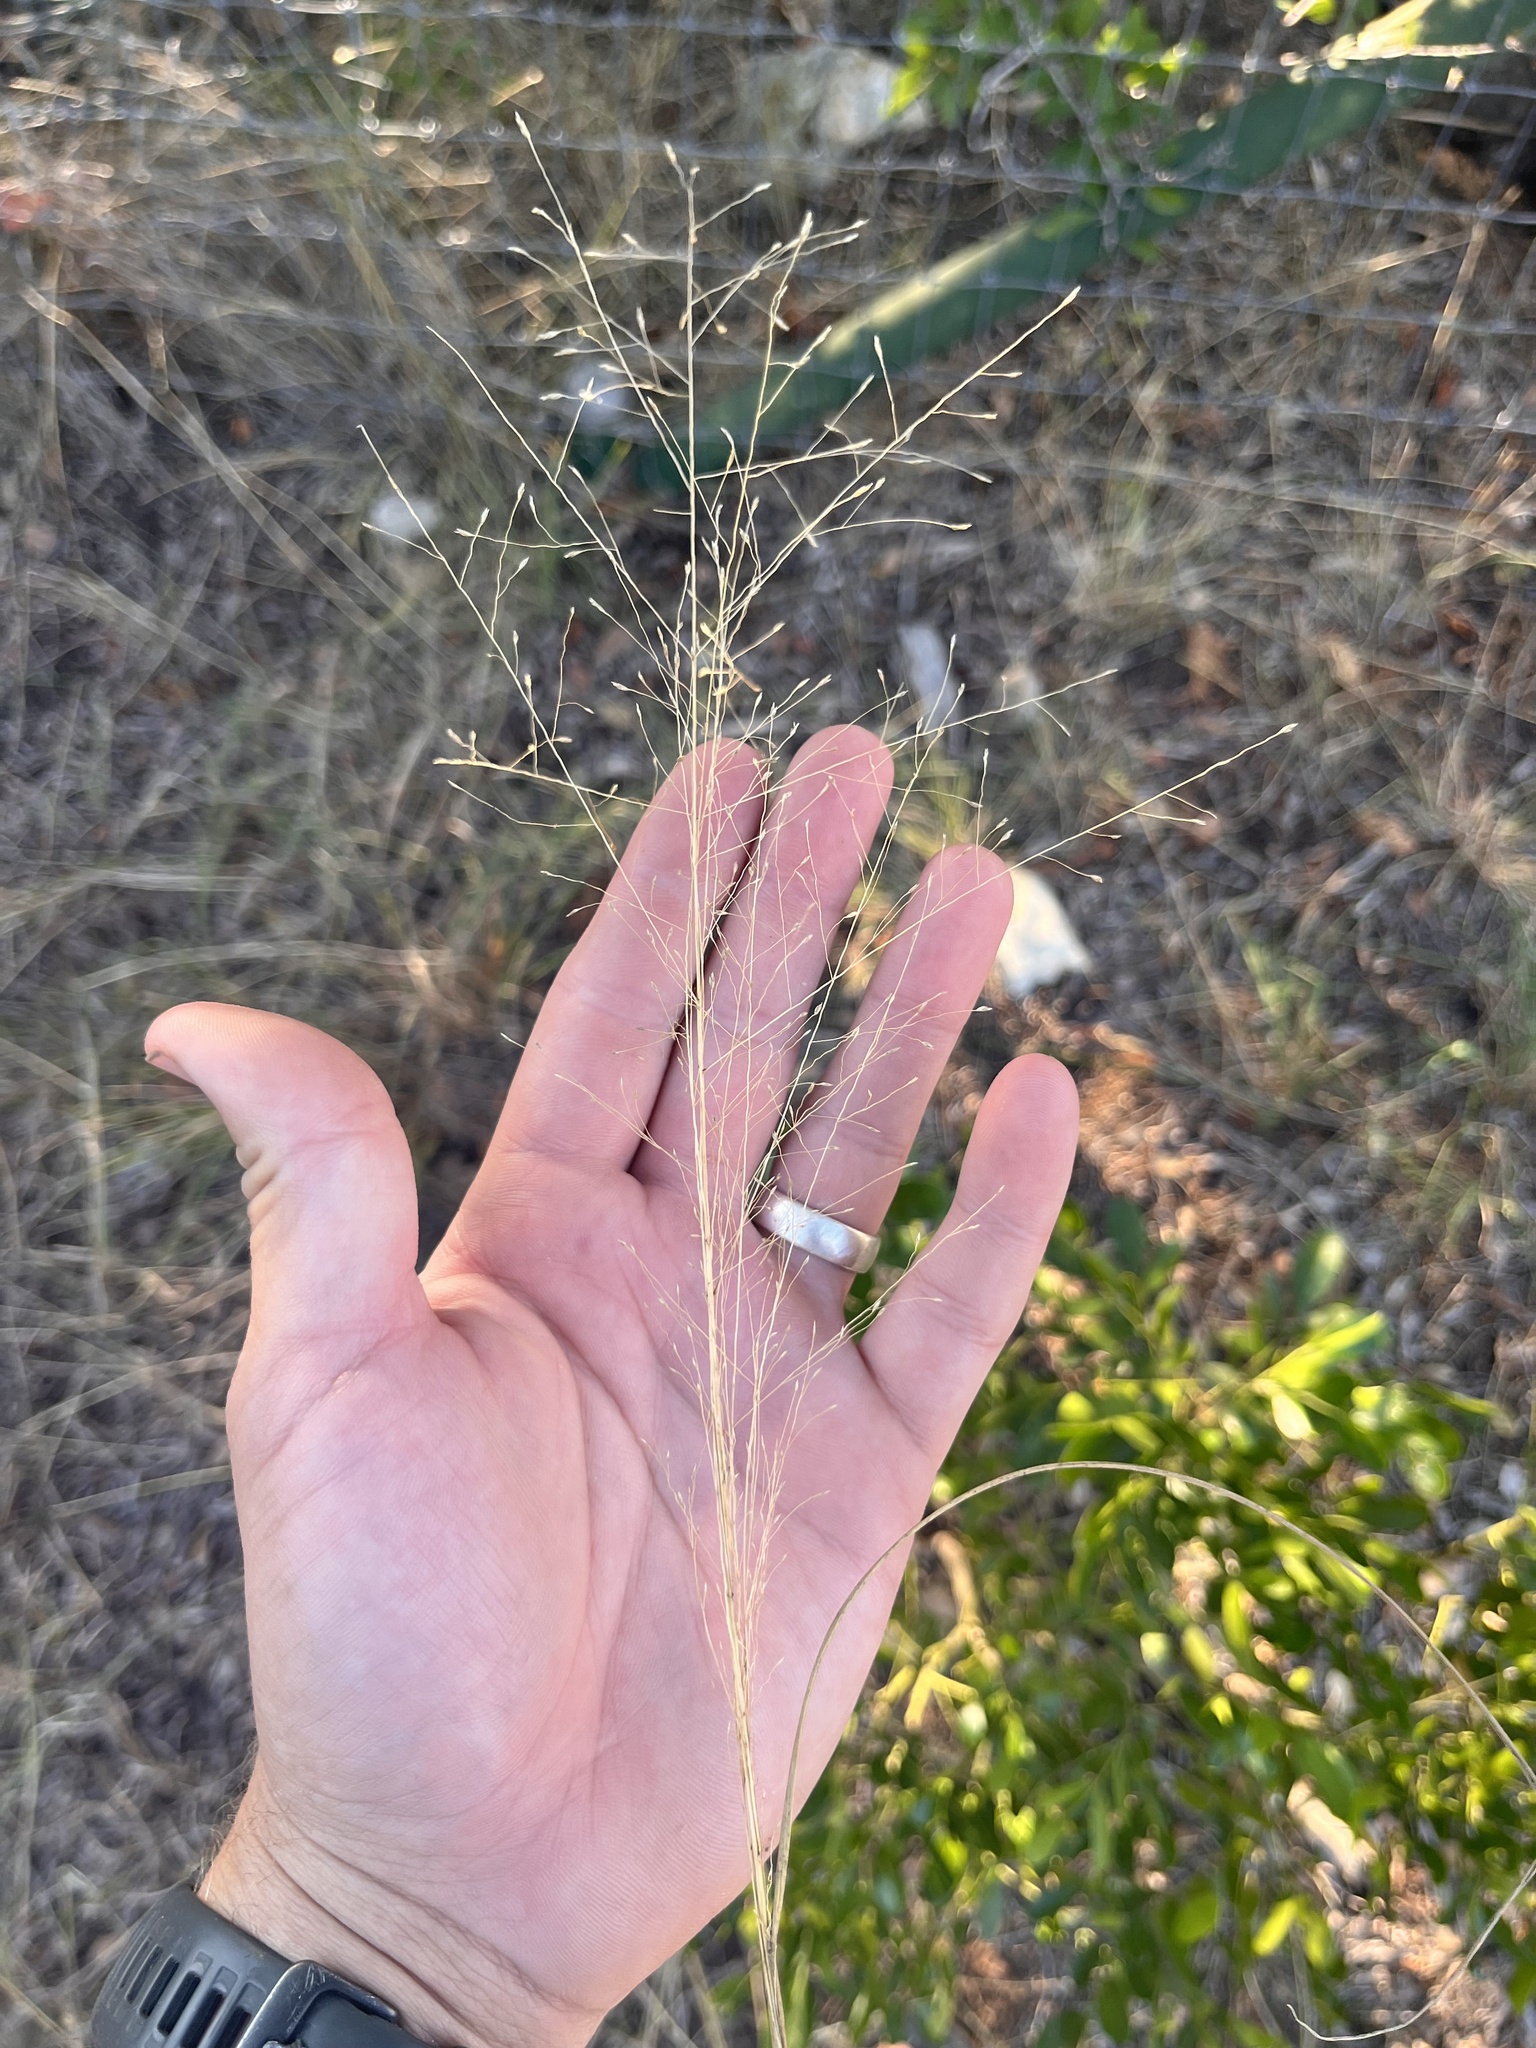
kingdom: Plantae
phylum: Tracheophyta
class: Liliopsida
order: Poales
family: Poaceae
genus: Eragrostis
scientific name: Eragrostis intermedia
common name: Plains love grass
